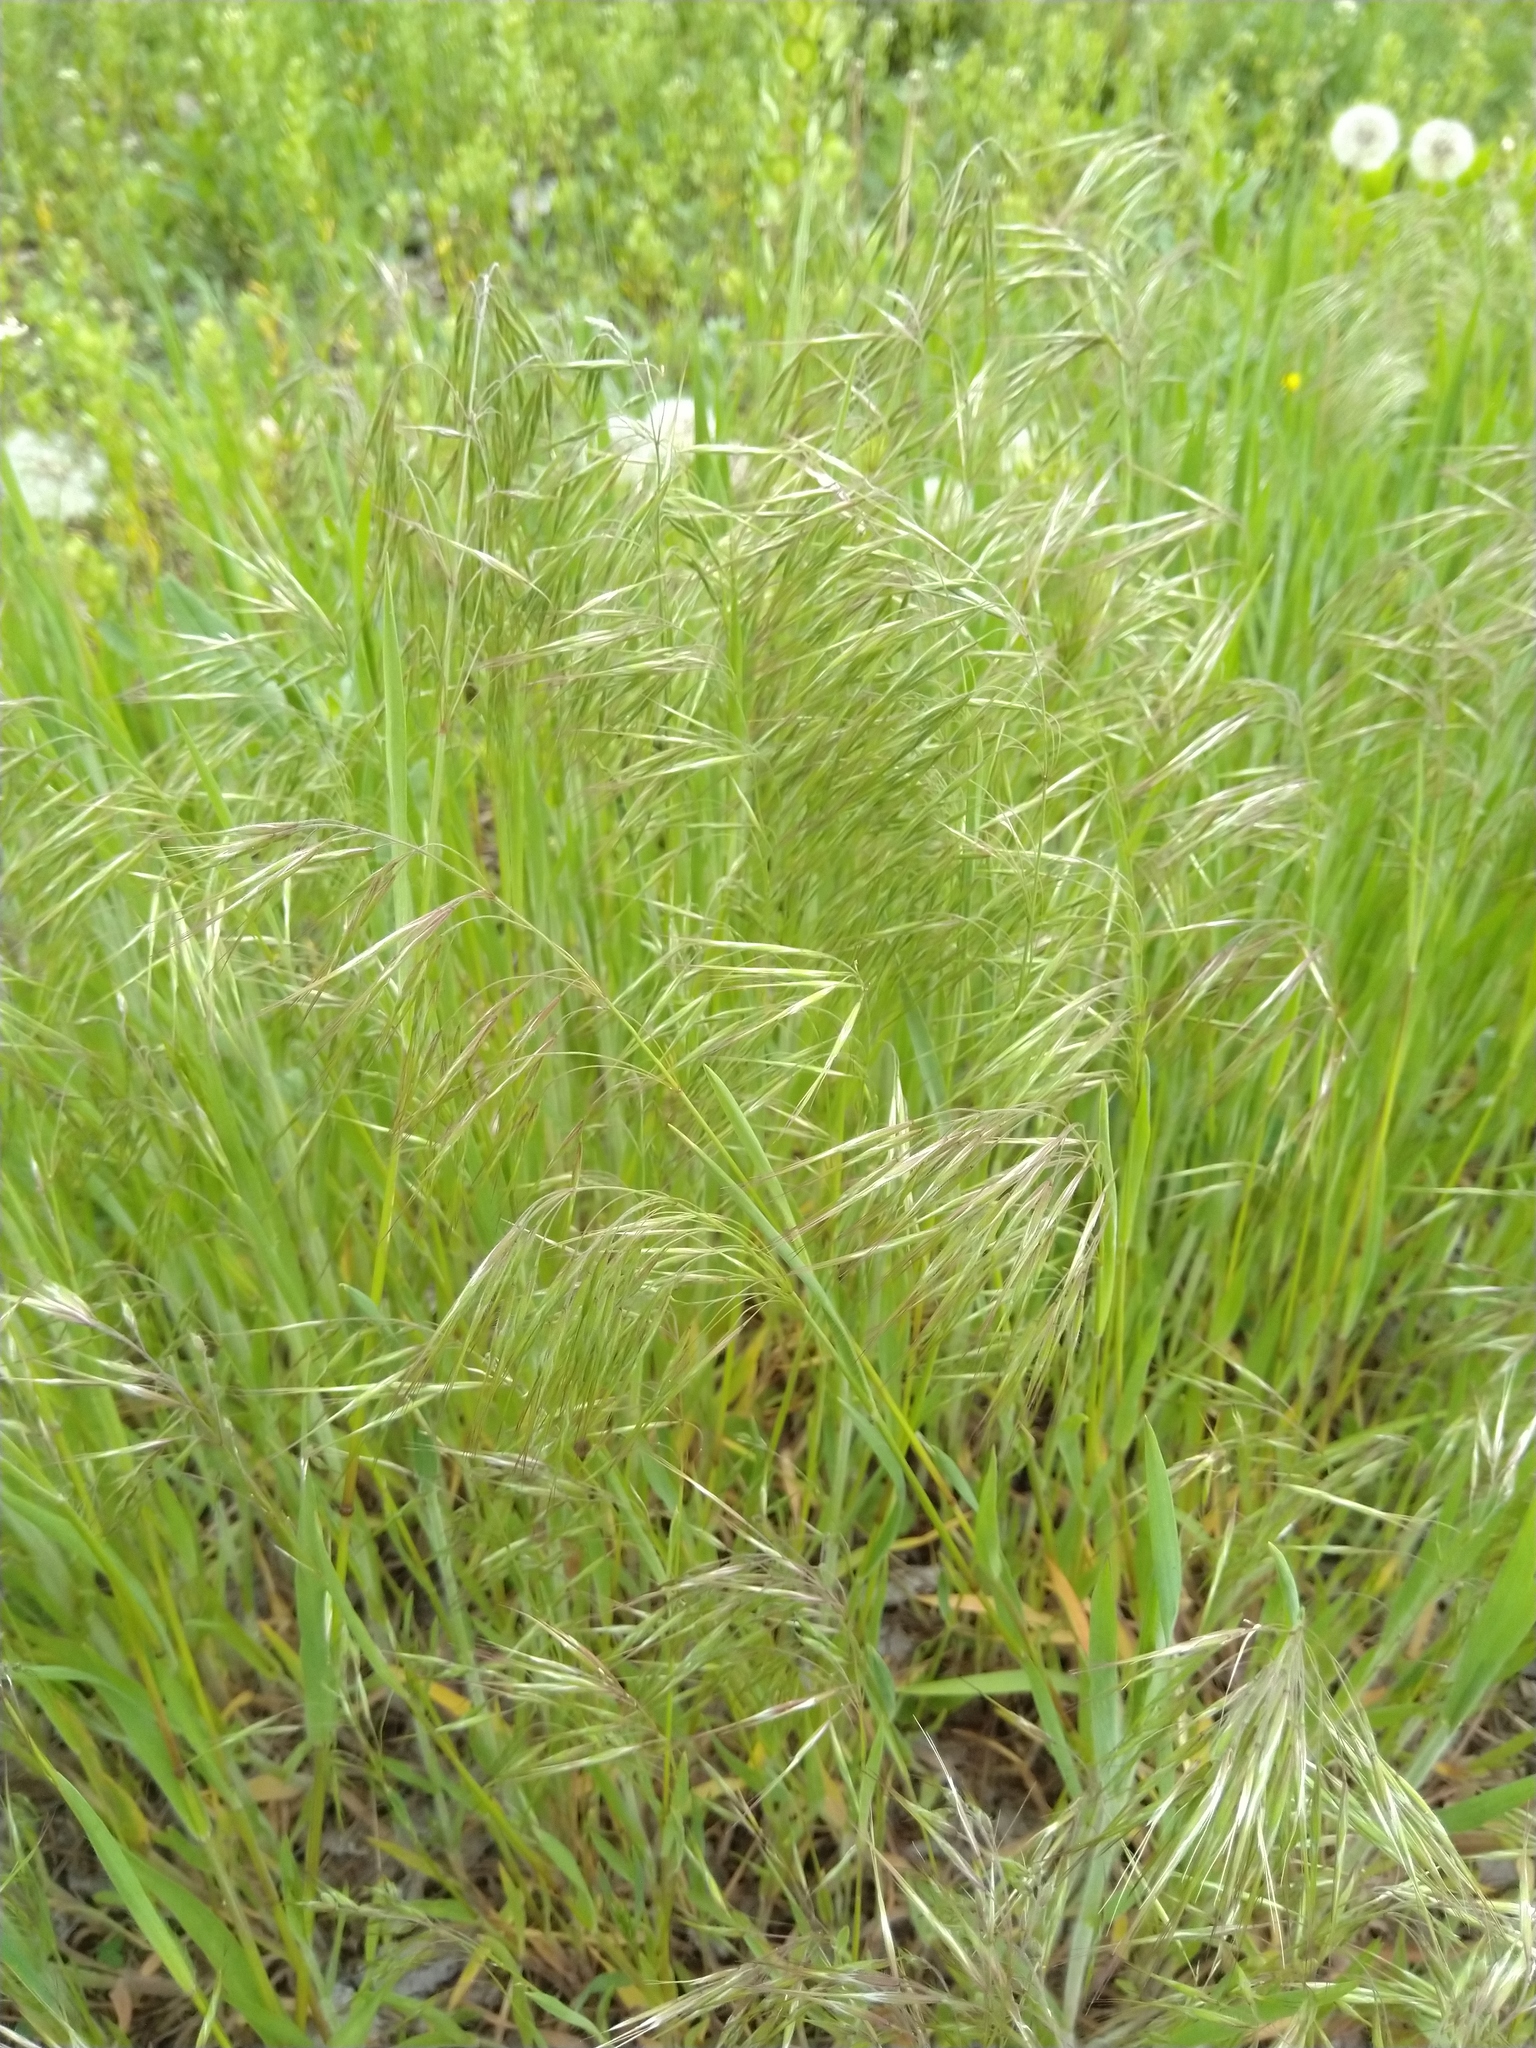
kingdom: Plantae
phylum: Tracheophyta
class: Liliopsida
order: Poales
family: Poaceae
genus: Bromus
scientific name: Bromus tectorum
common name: Cheatgrass
